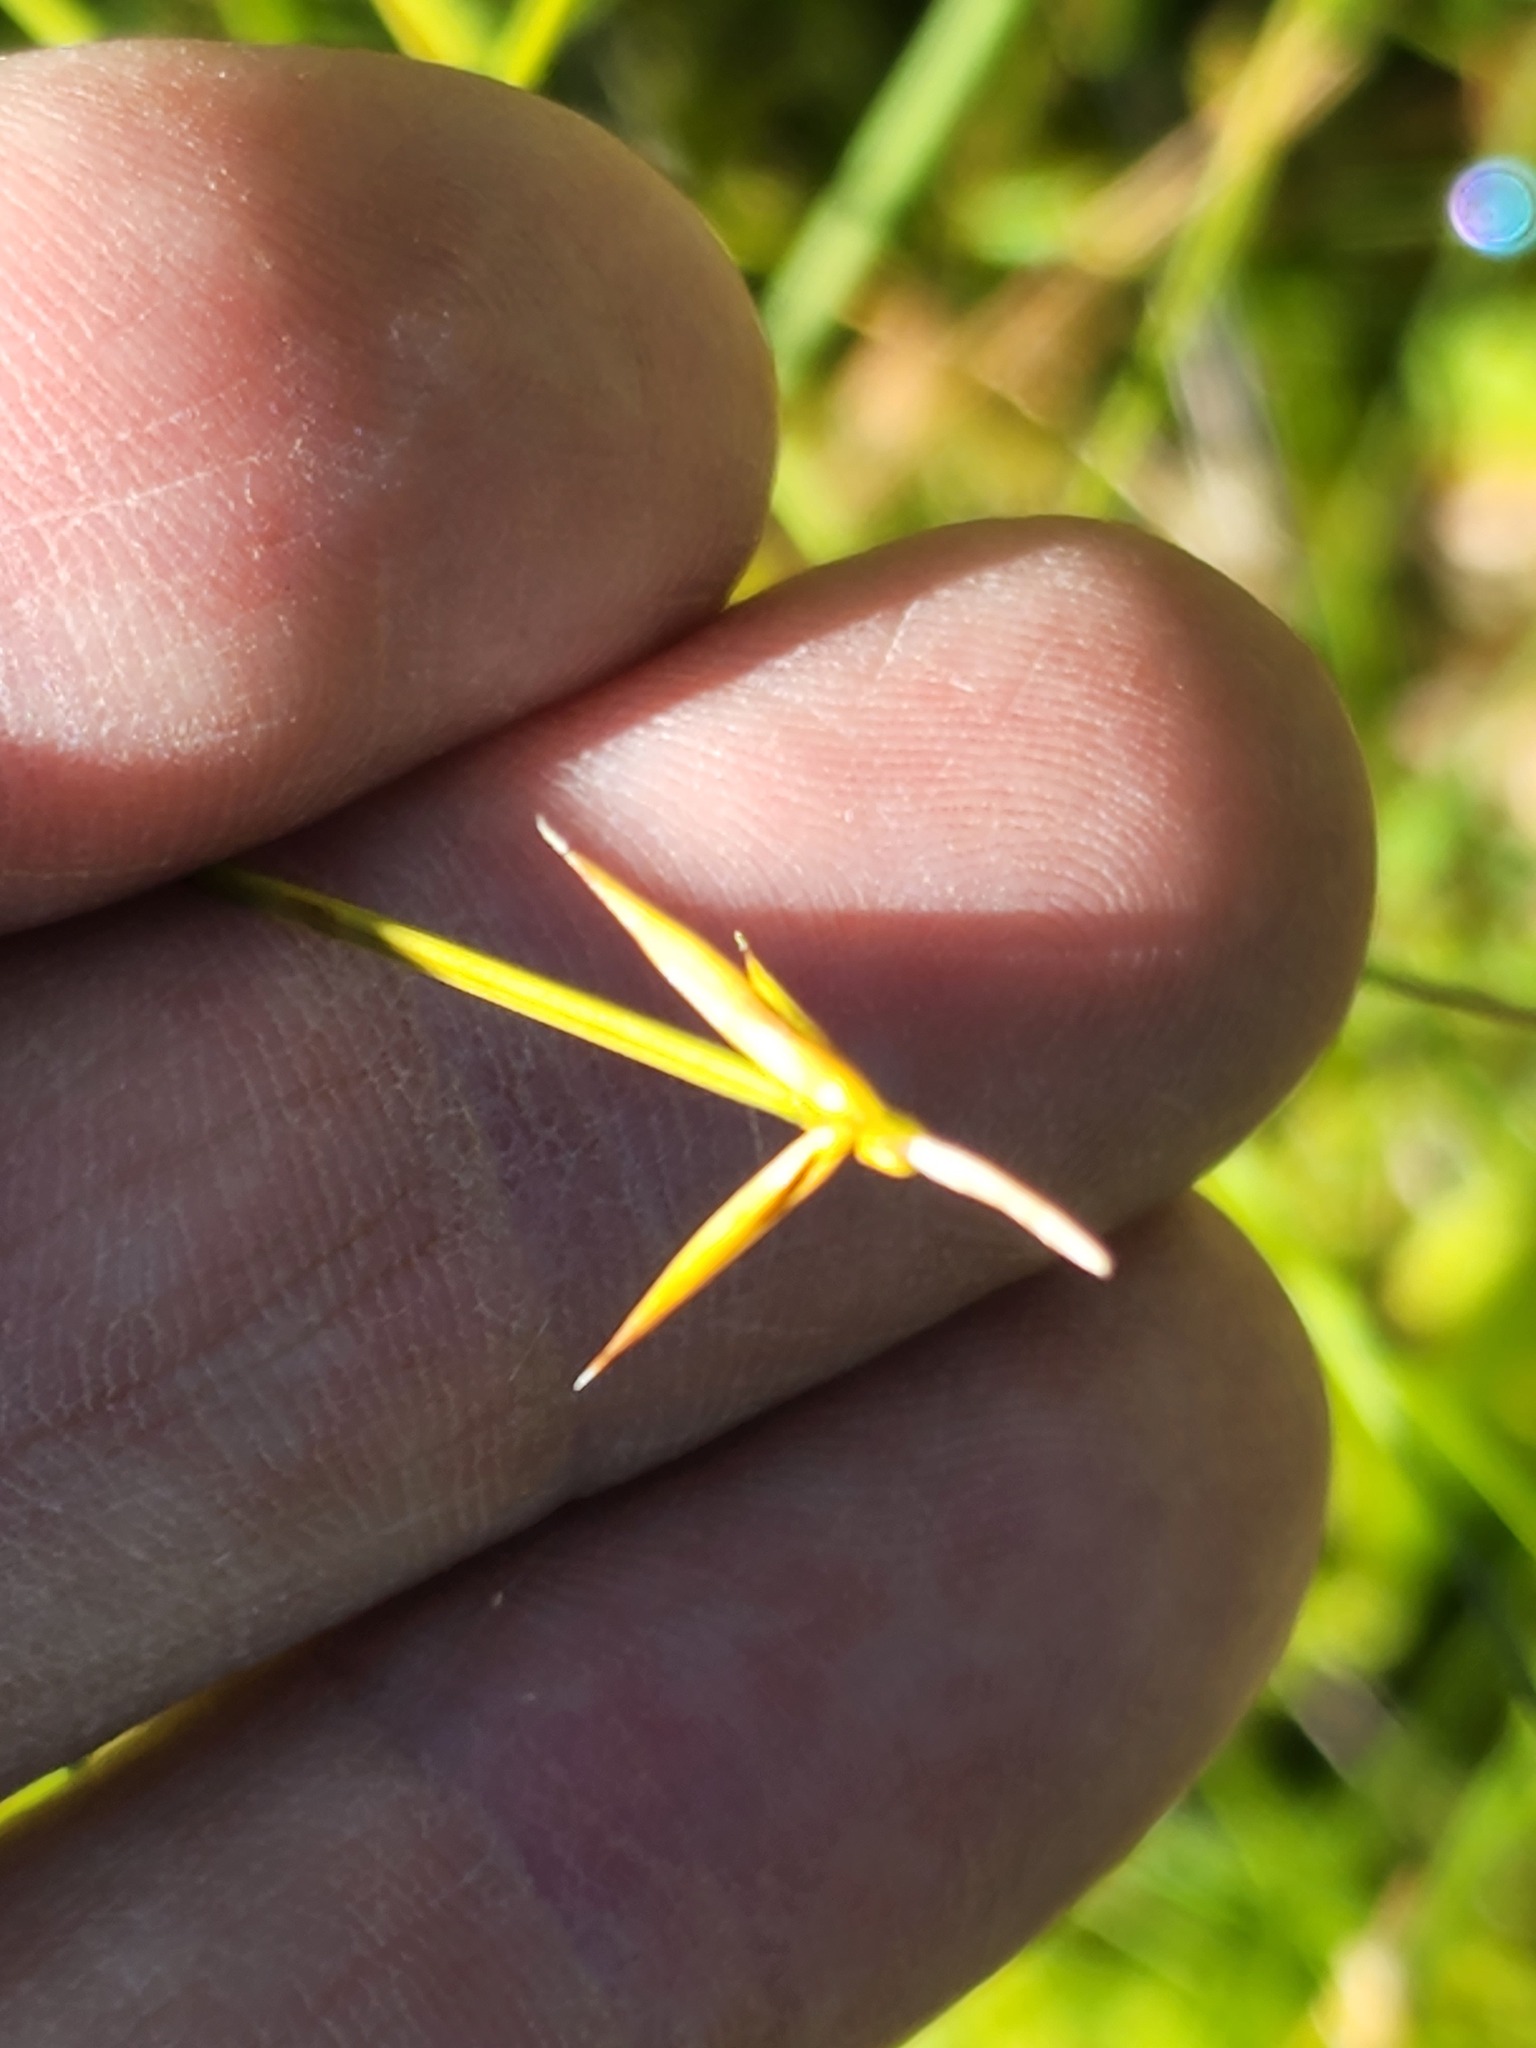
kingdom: Plantae
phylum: Tracheophyta
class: Liliopsida
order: Poales
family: Cyperaceae
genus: Carex
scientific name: Carex pauciflora
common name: Few-flowered sedge
